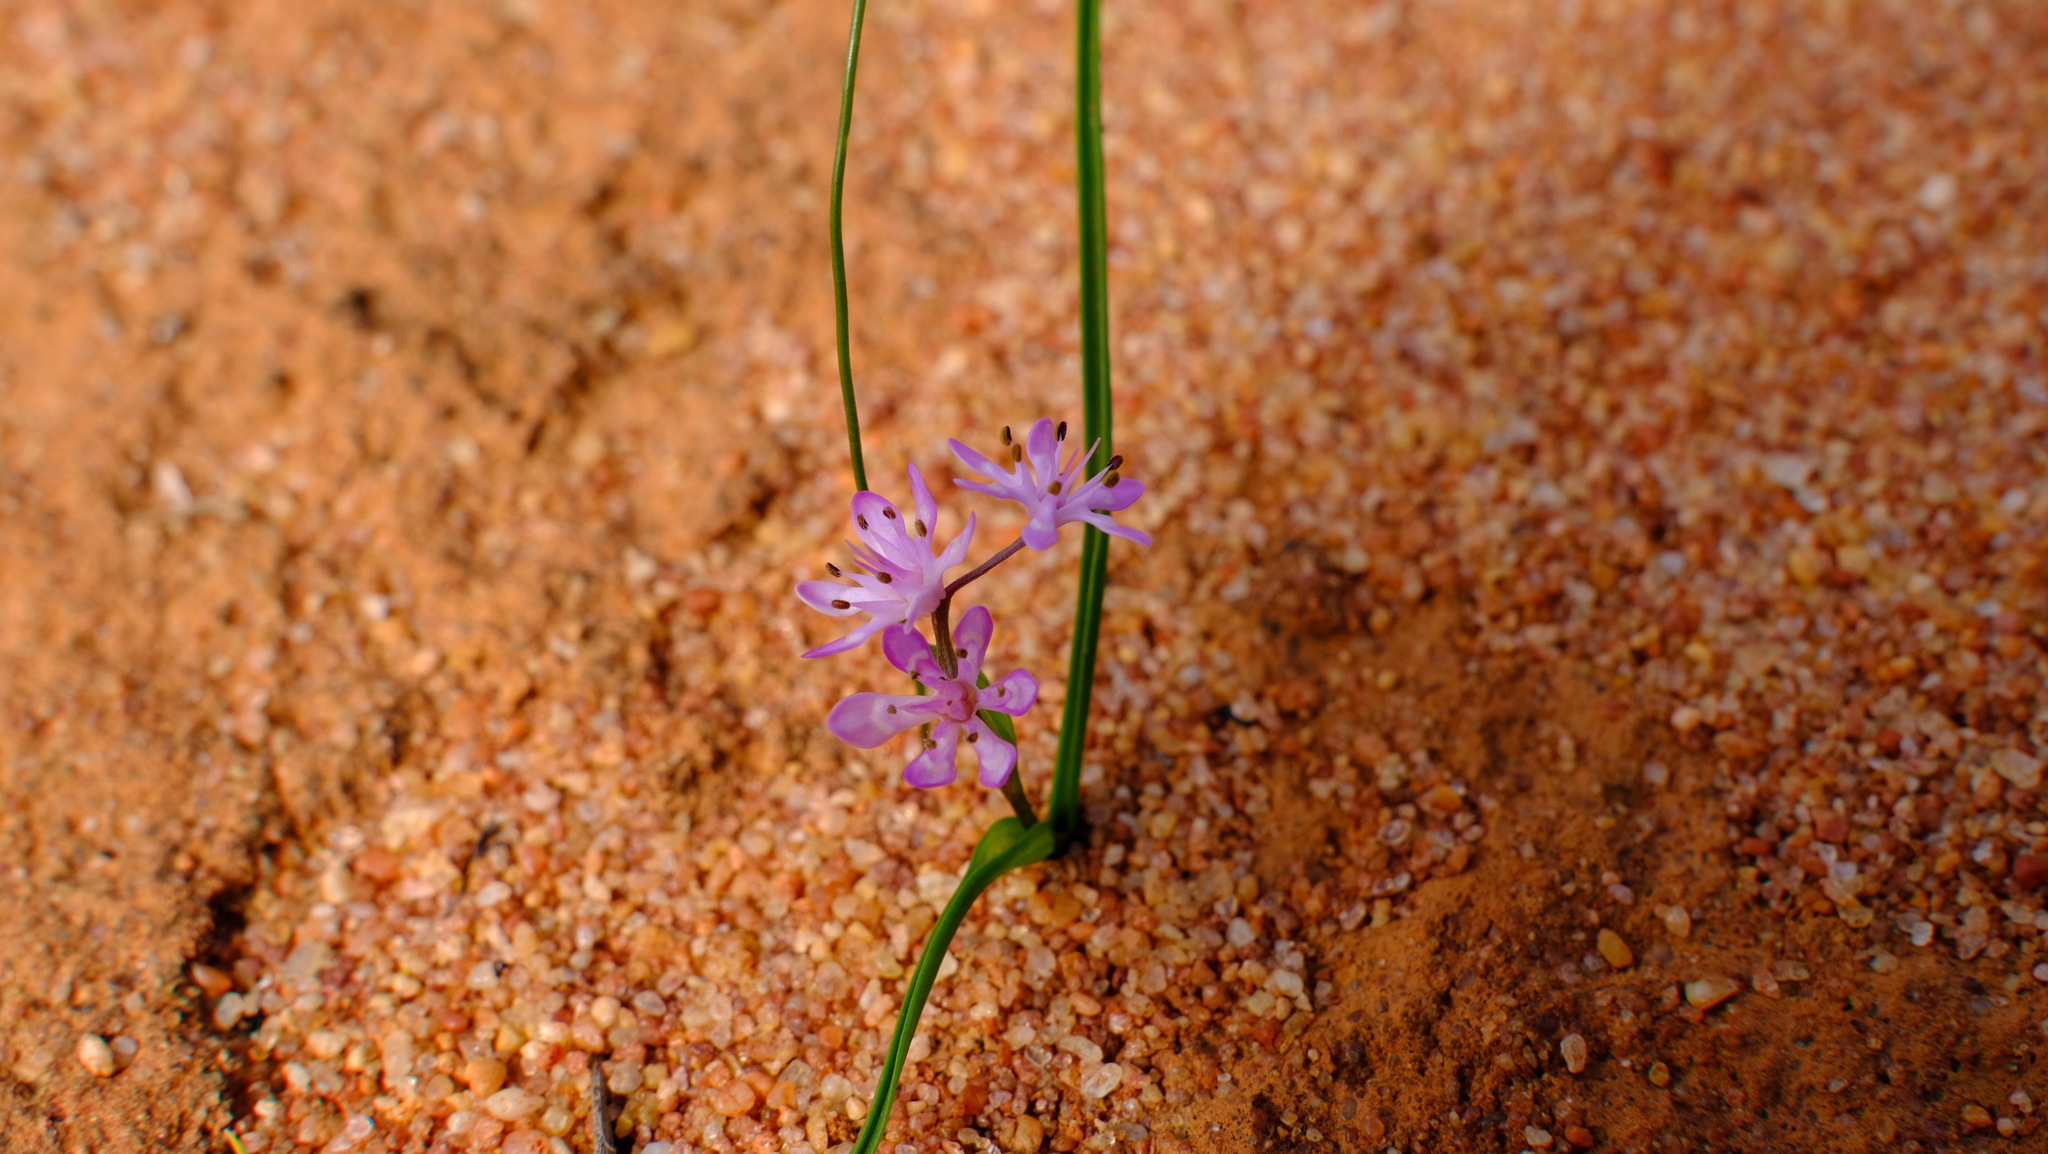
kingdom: Plantae
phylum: Tracheophyta
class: Liliopsida
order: Liliales
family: Colchicaceae
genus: Wurmbea
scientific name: Wurmbea inframediana
